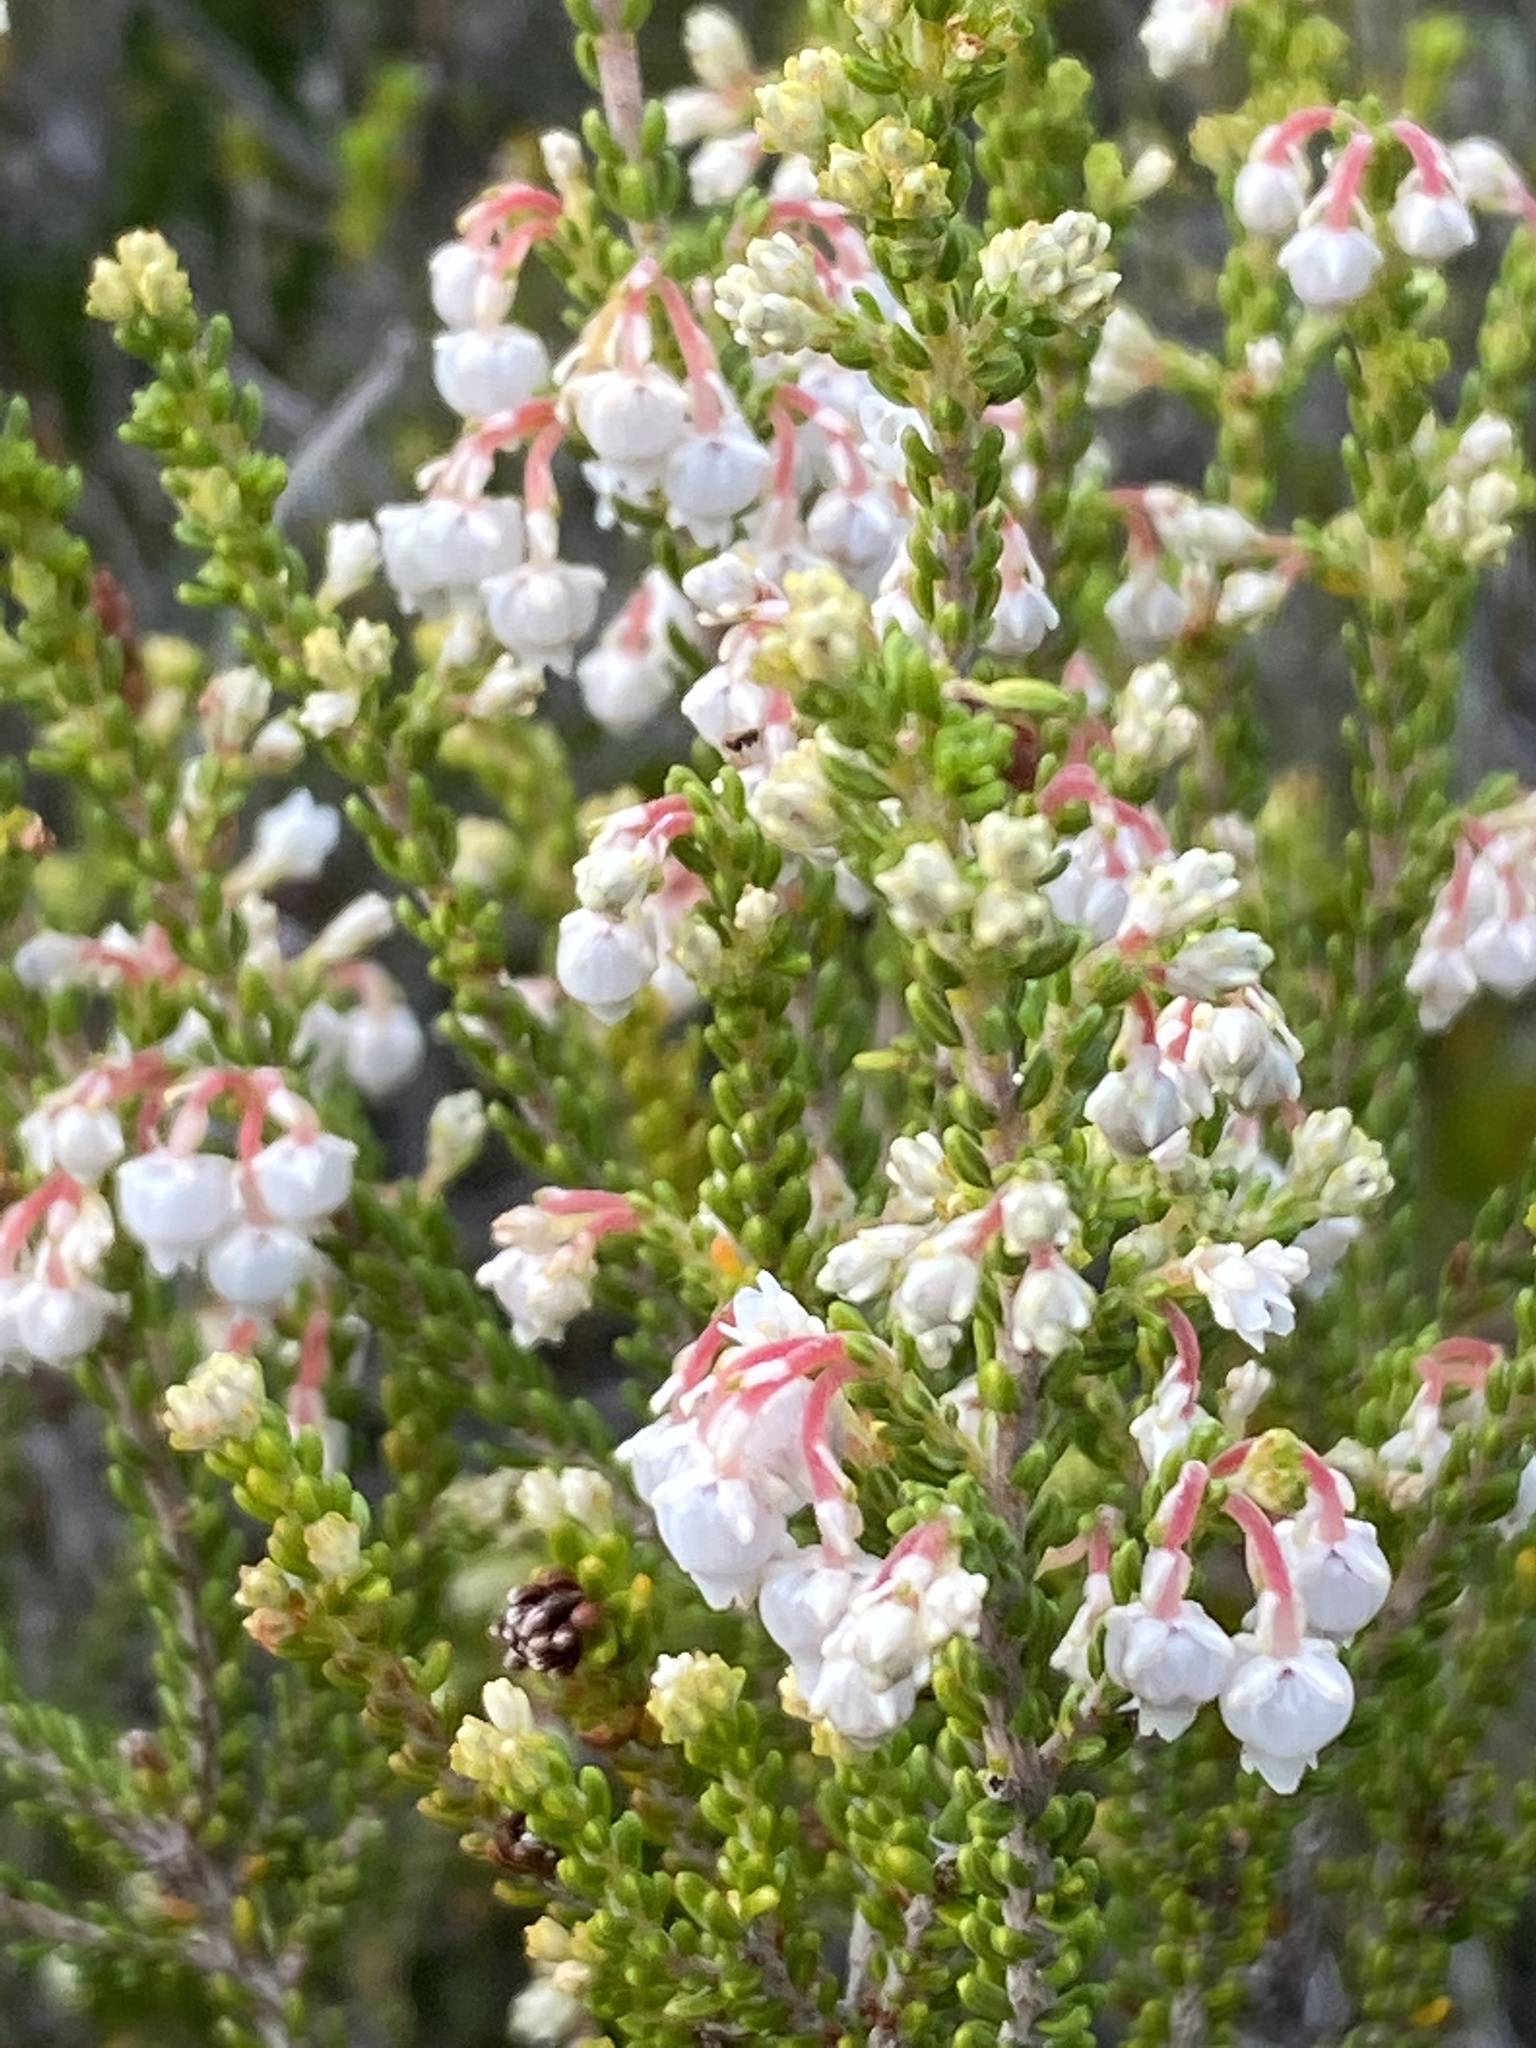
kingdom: Plantae
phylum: Tracheophyta
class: Magnoliopsida
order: Ericales
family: Ericaceae
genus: Erica
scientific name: Erica spectabilis
